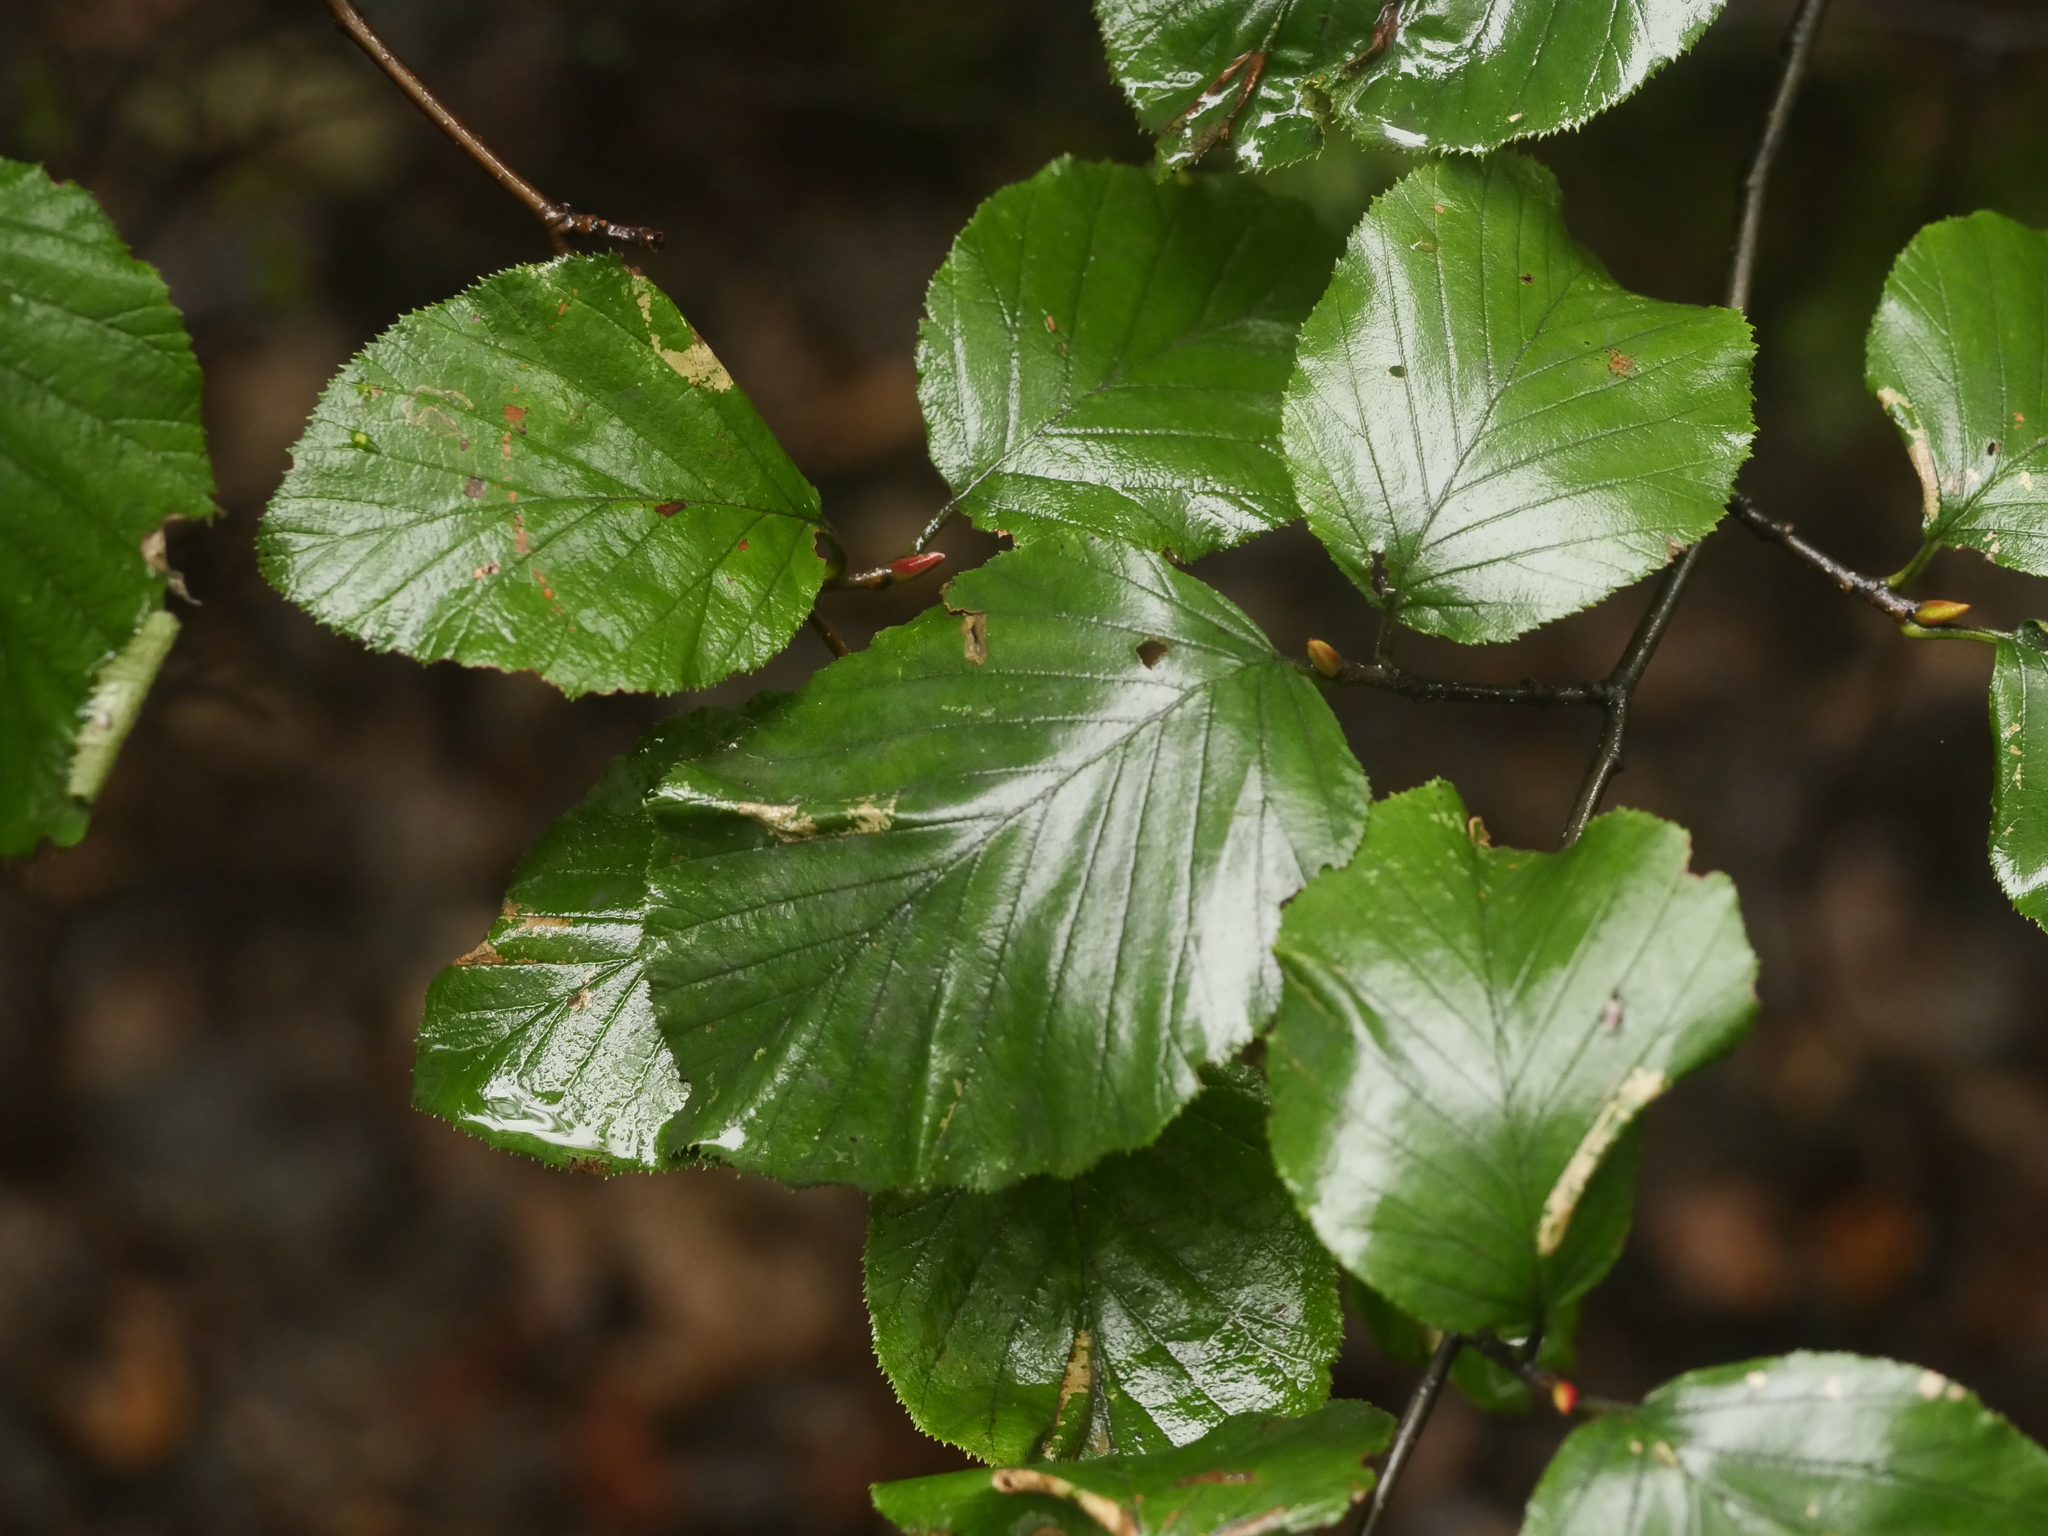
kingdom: Plantae
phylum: Tracheophyta
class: Magnoliopsida
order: Fagales
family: Betulaceae
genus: Alnus
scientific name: Alnus alnobetula
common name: Green alder
